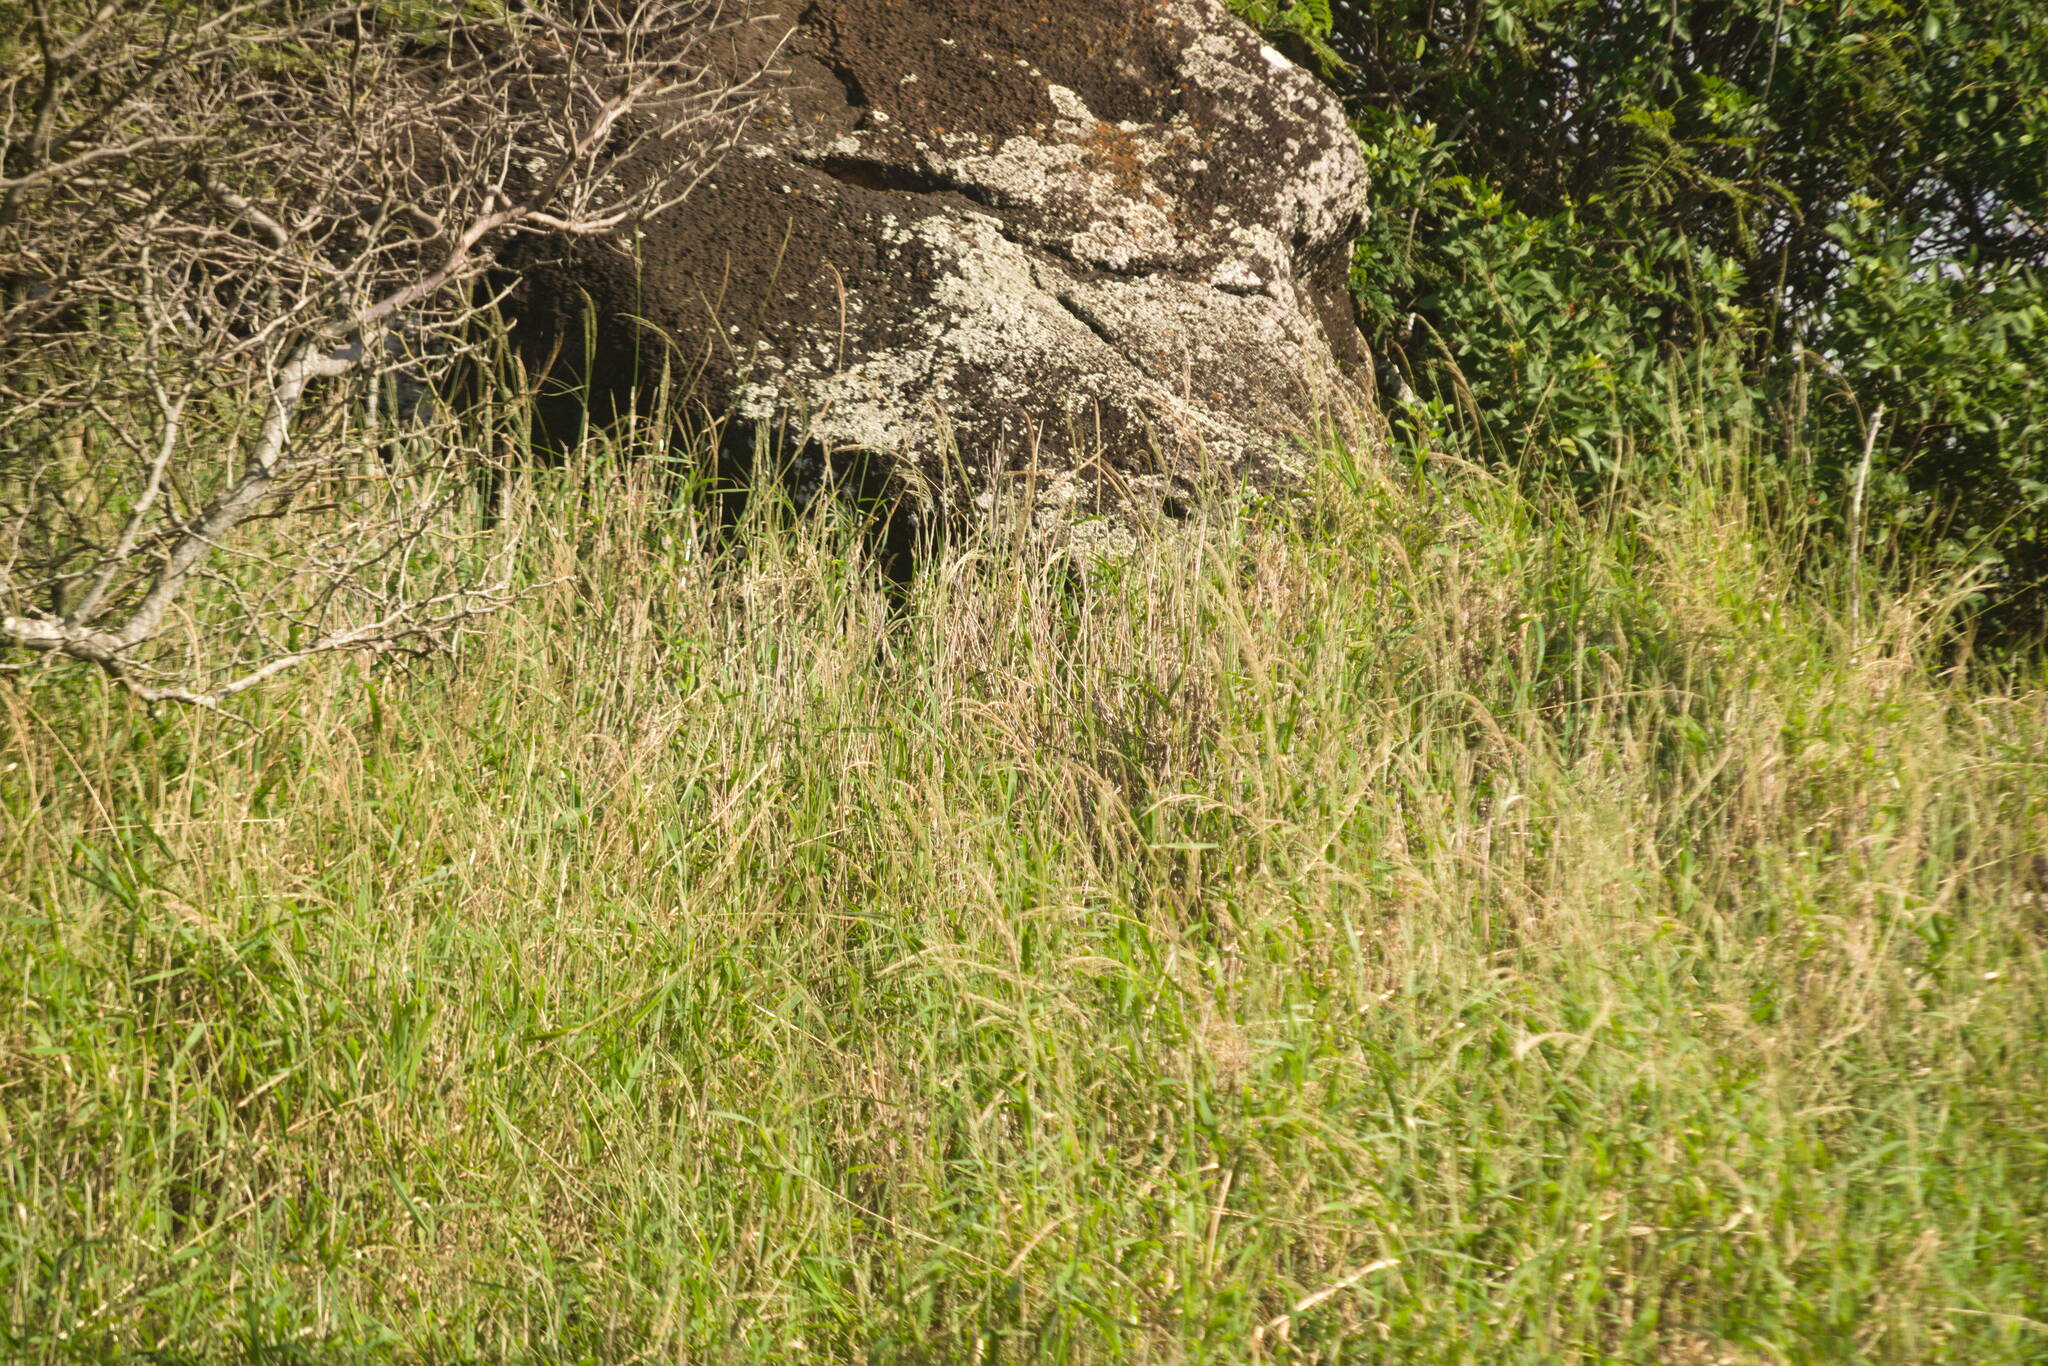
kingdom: Plantae
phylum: Tracheophyta
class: Liliopsida
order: Poales
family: Poaceae
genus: Digitaria
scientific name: Digitaria insularis
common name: Sourgrass
